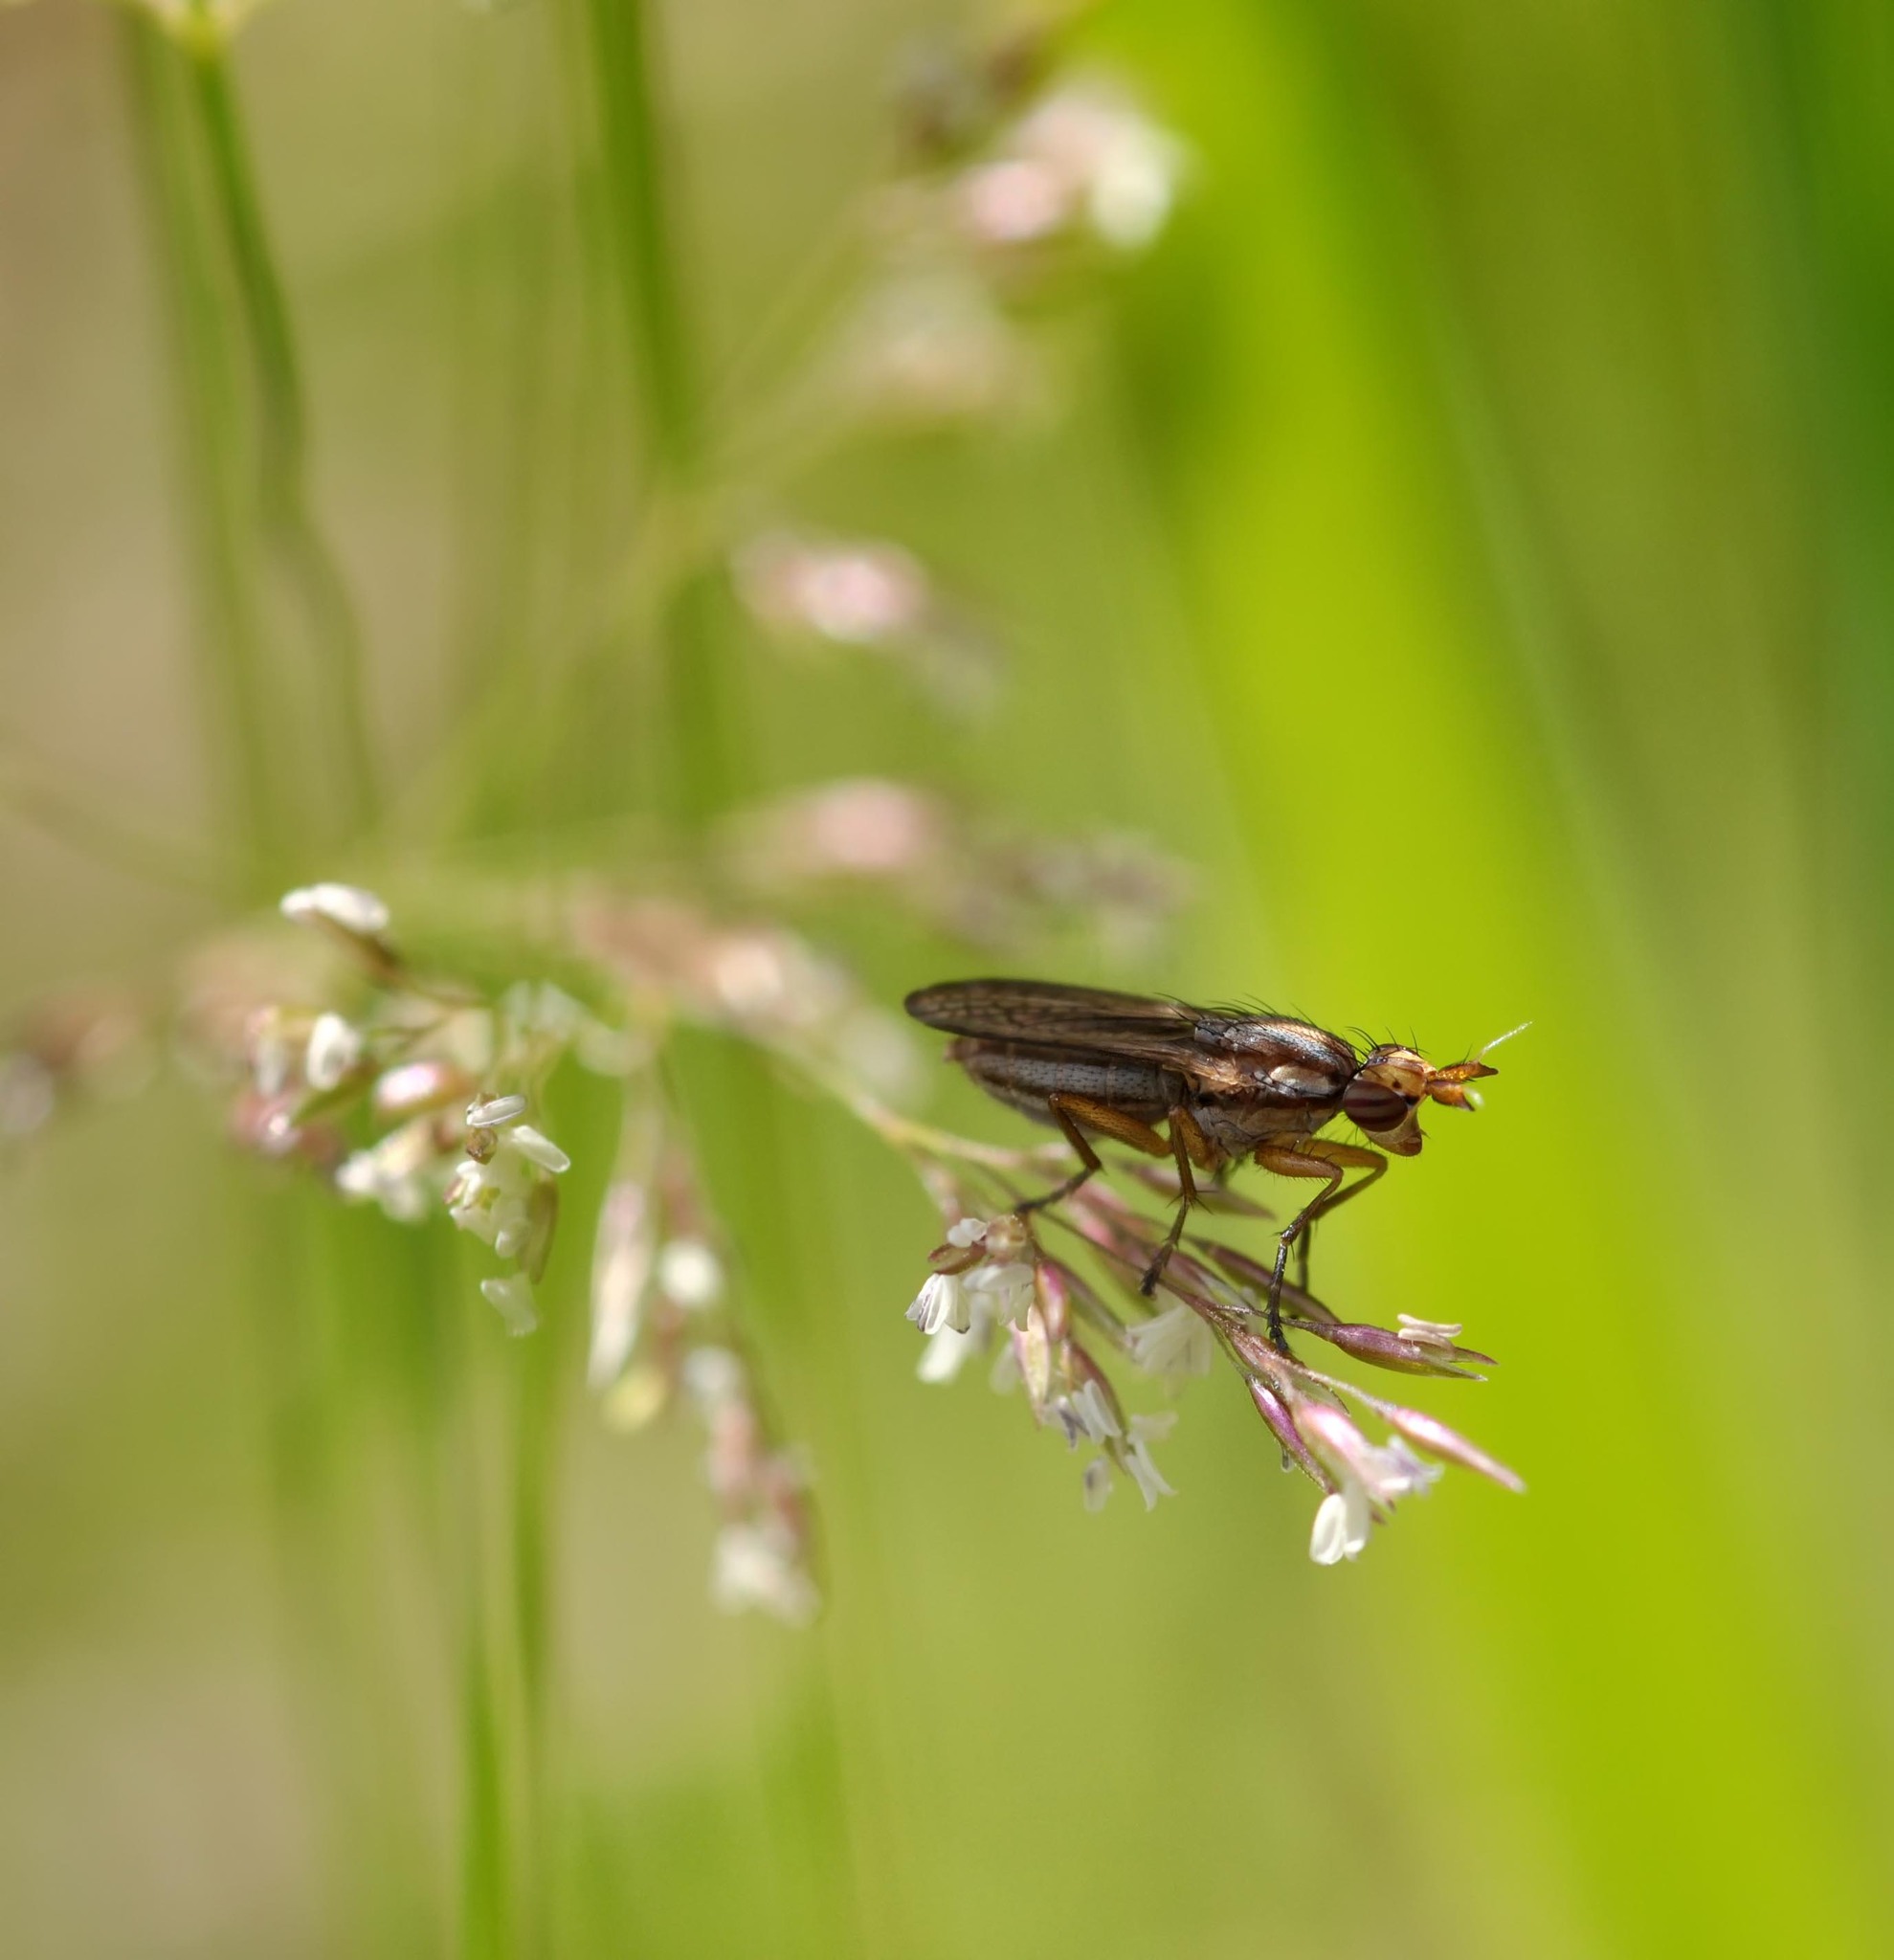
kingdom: Animalia
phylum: Arthropoda
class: Insecta
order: Diptera
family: Sciomyzidae
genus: Limnia
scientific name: Limnia unguicornis
